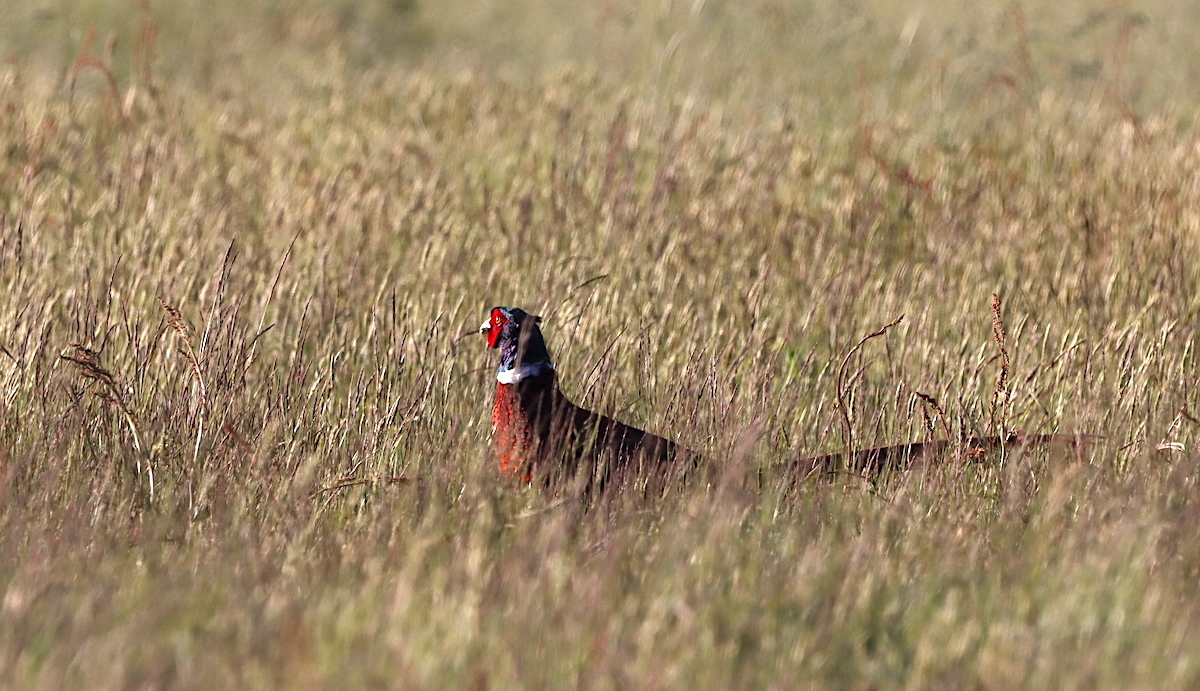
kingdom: Animalia
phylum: Chordata
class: Aves
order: Galliformes
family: Phasianidae
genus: Phasianus
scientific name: Phasianus colchicus
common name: Common pheasant
